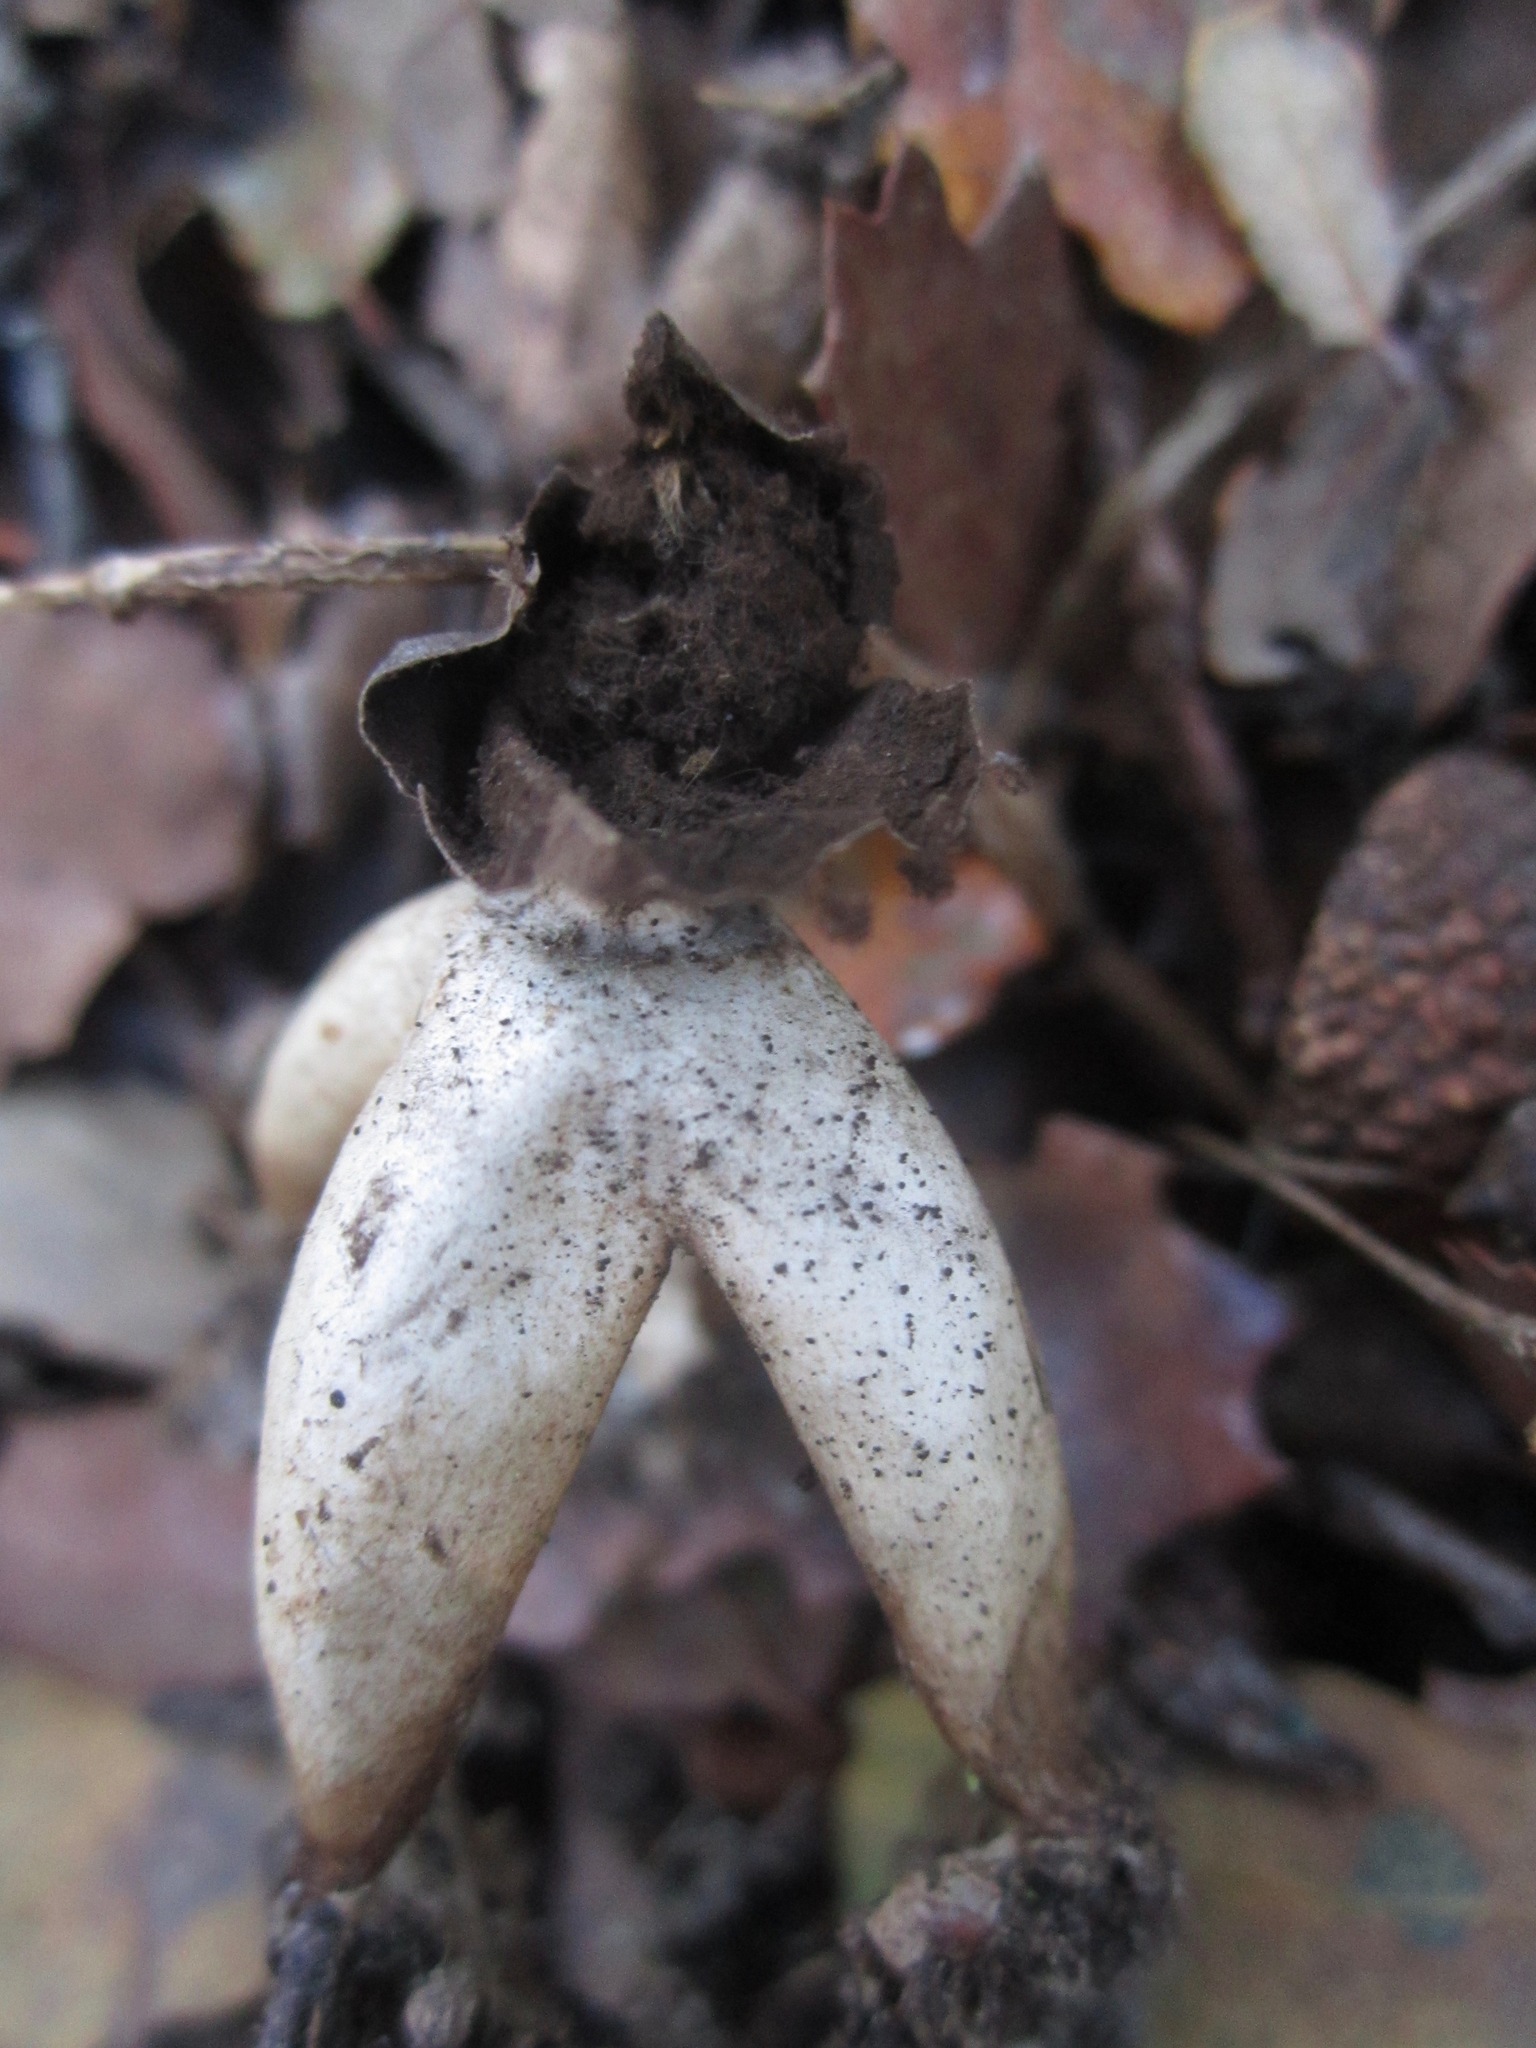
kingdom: Fungi
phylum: Basidiomycota
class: Agaricomycetes
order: Geastrales
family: Geastraceae
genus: Geastrum
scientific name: Geastrum fornicatum
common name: Arched earthstar
